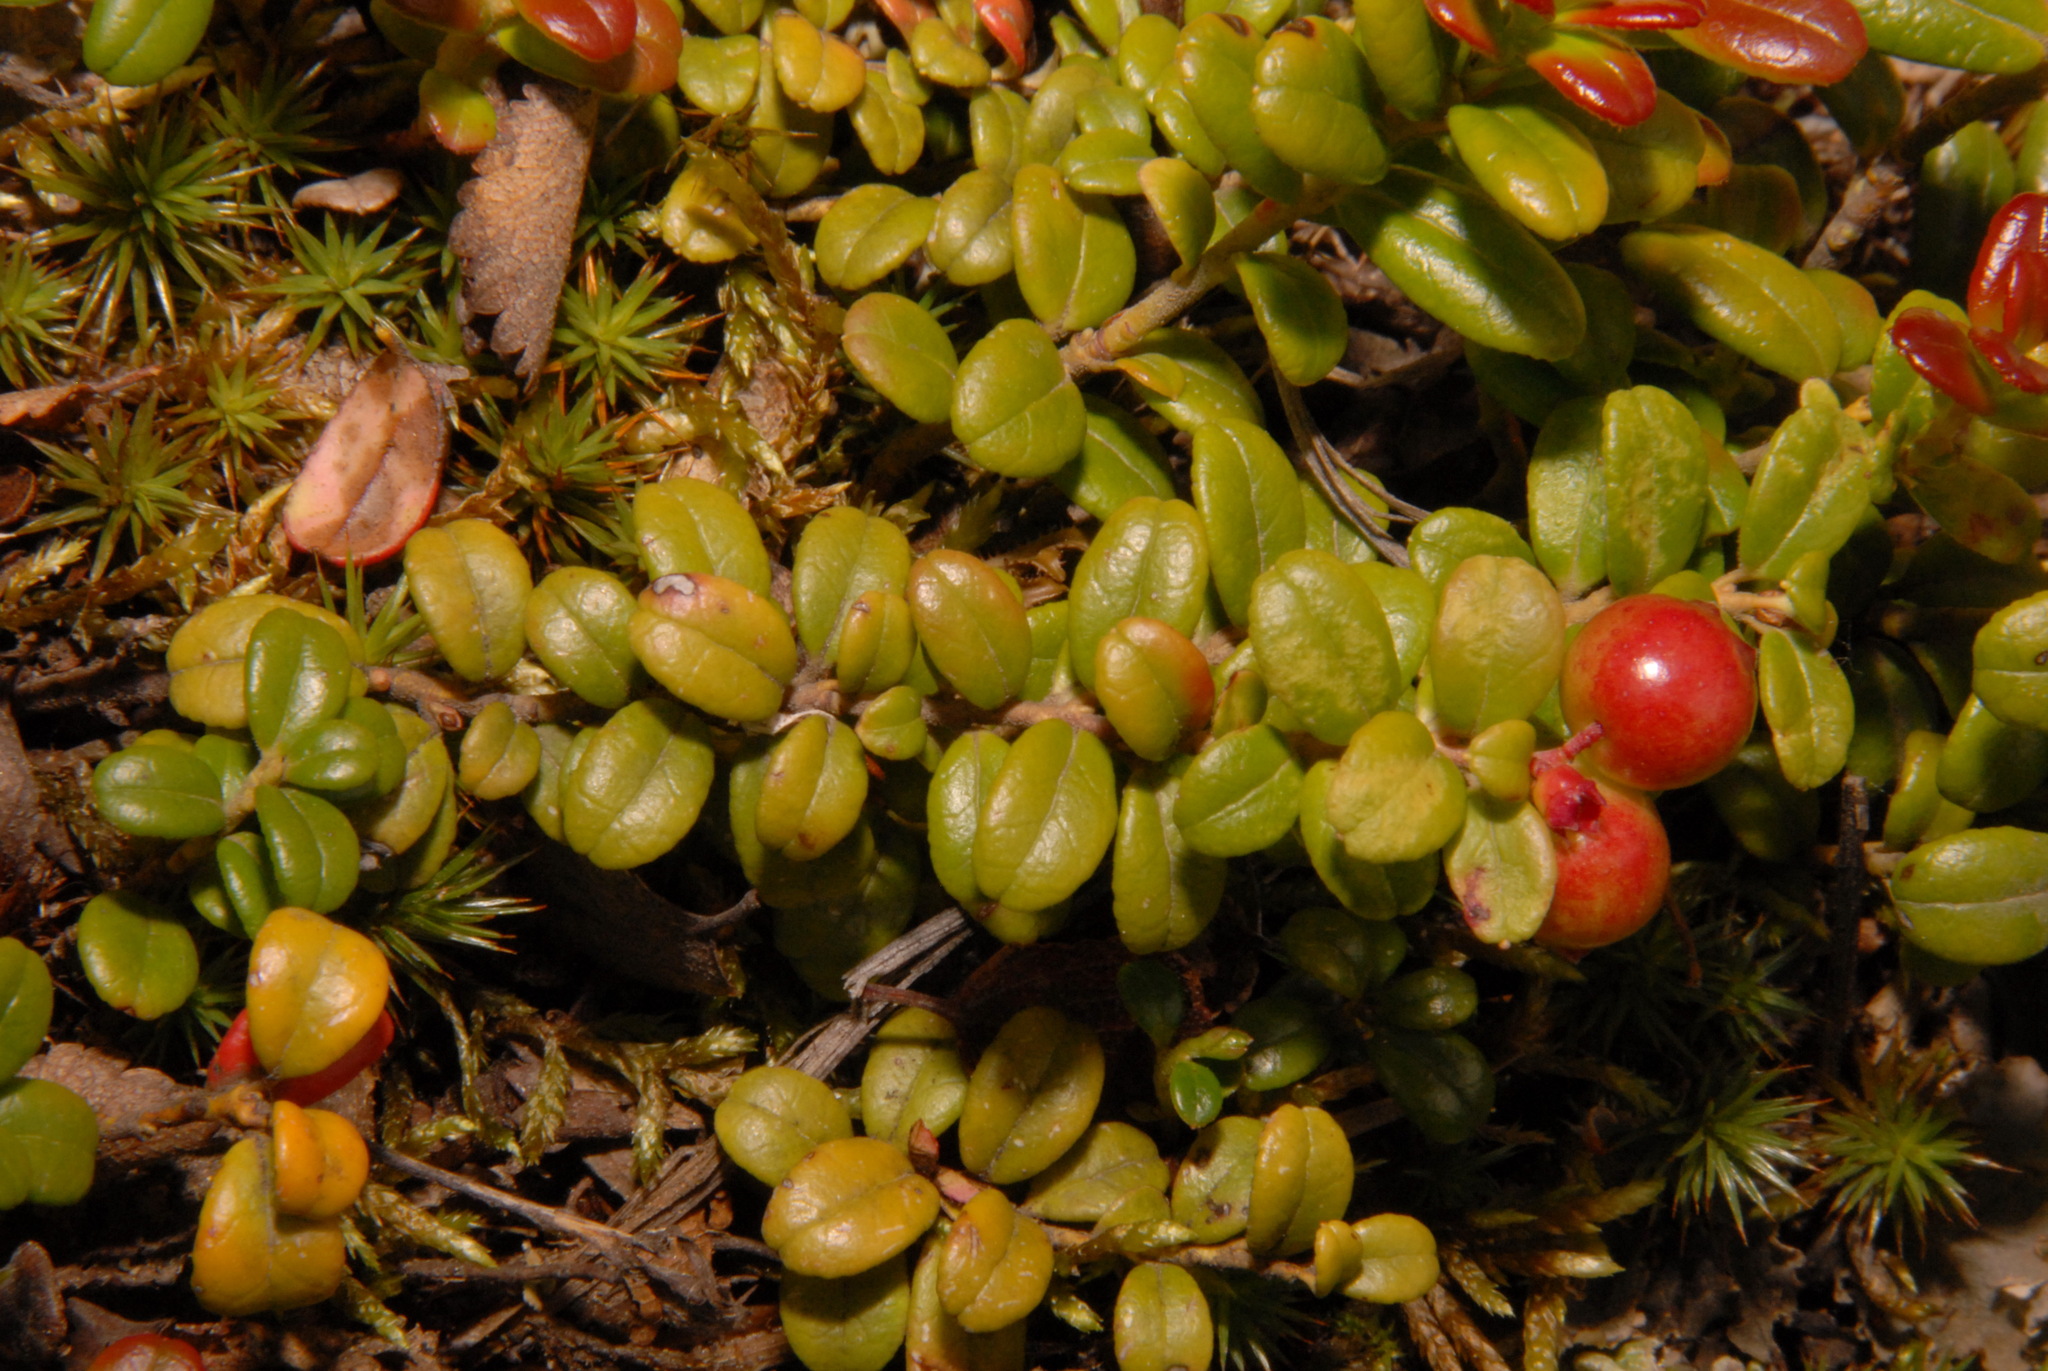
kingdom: Plantae
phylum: Tracheophyta
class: Magnoliopsida
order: Ericales
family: Ericaceae
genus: Vaccinium
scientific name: Vaccinium vitis-idaea
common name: Cowberry
